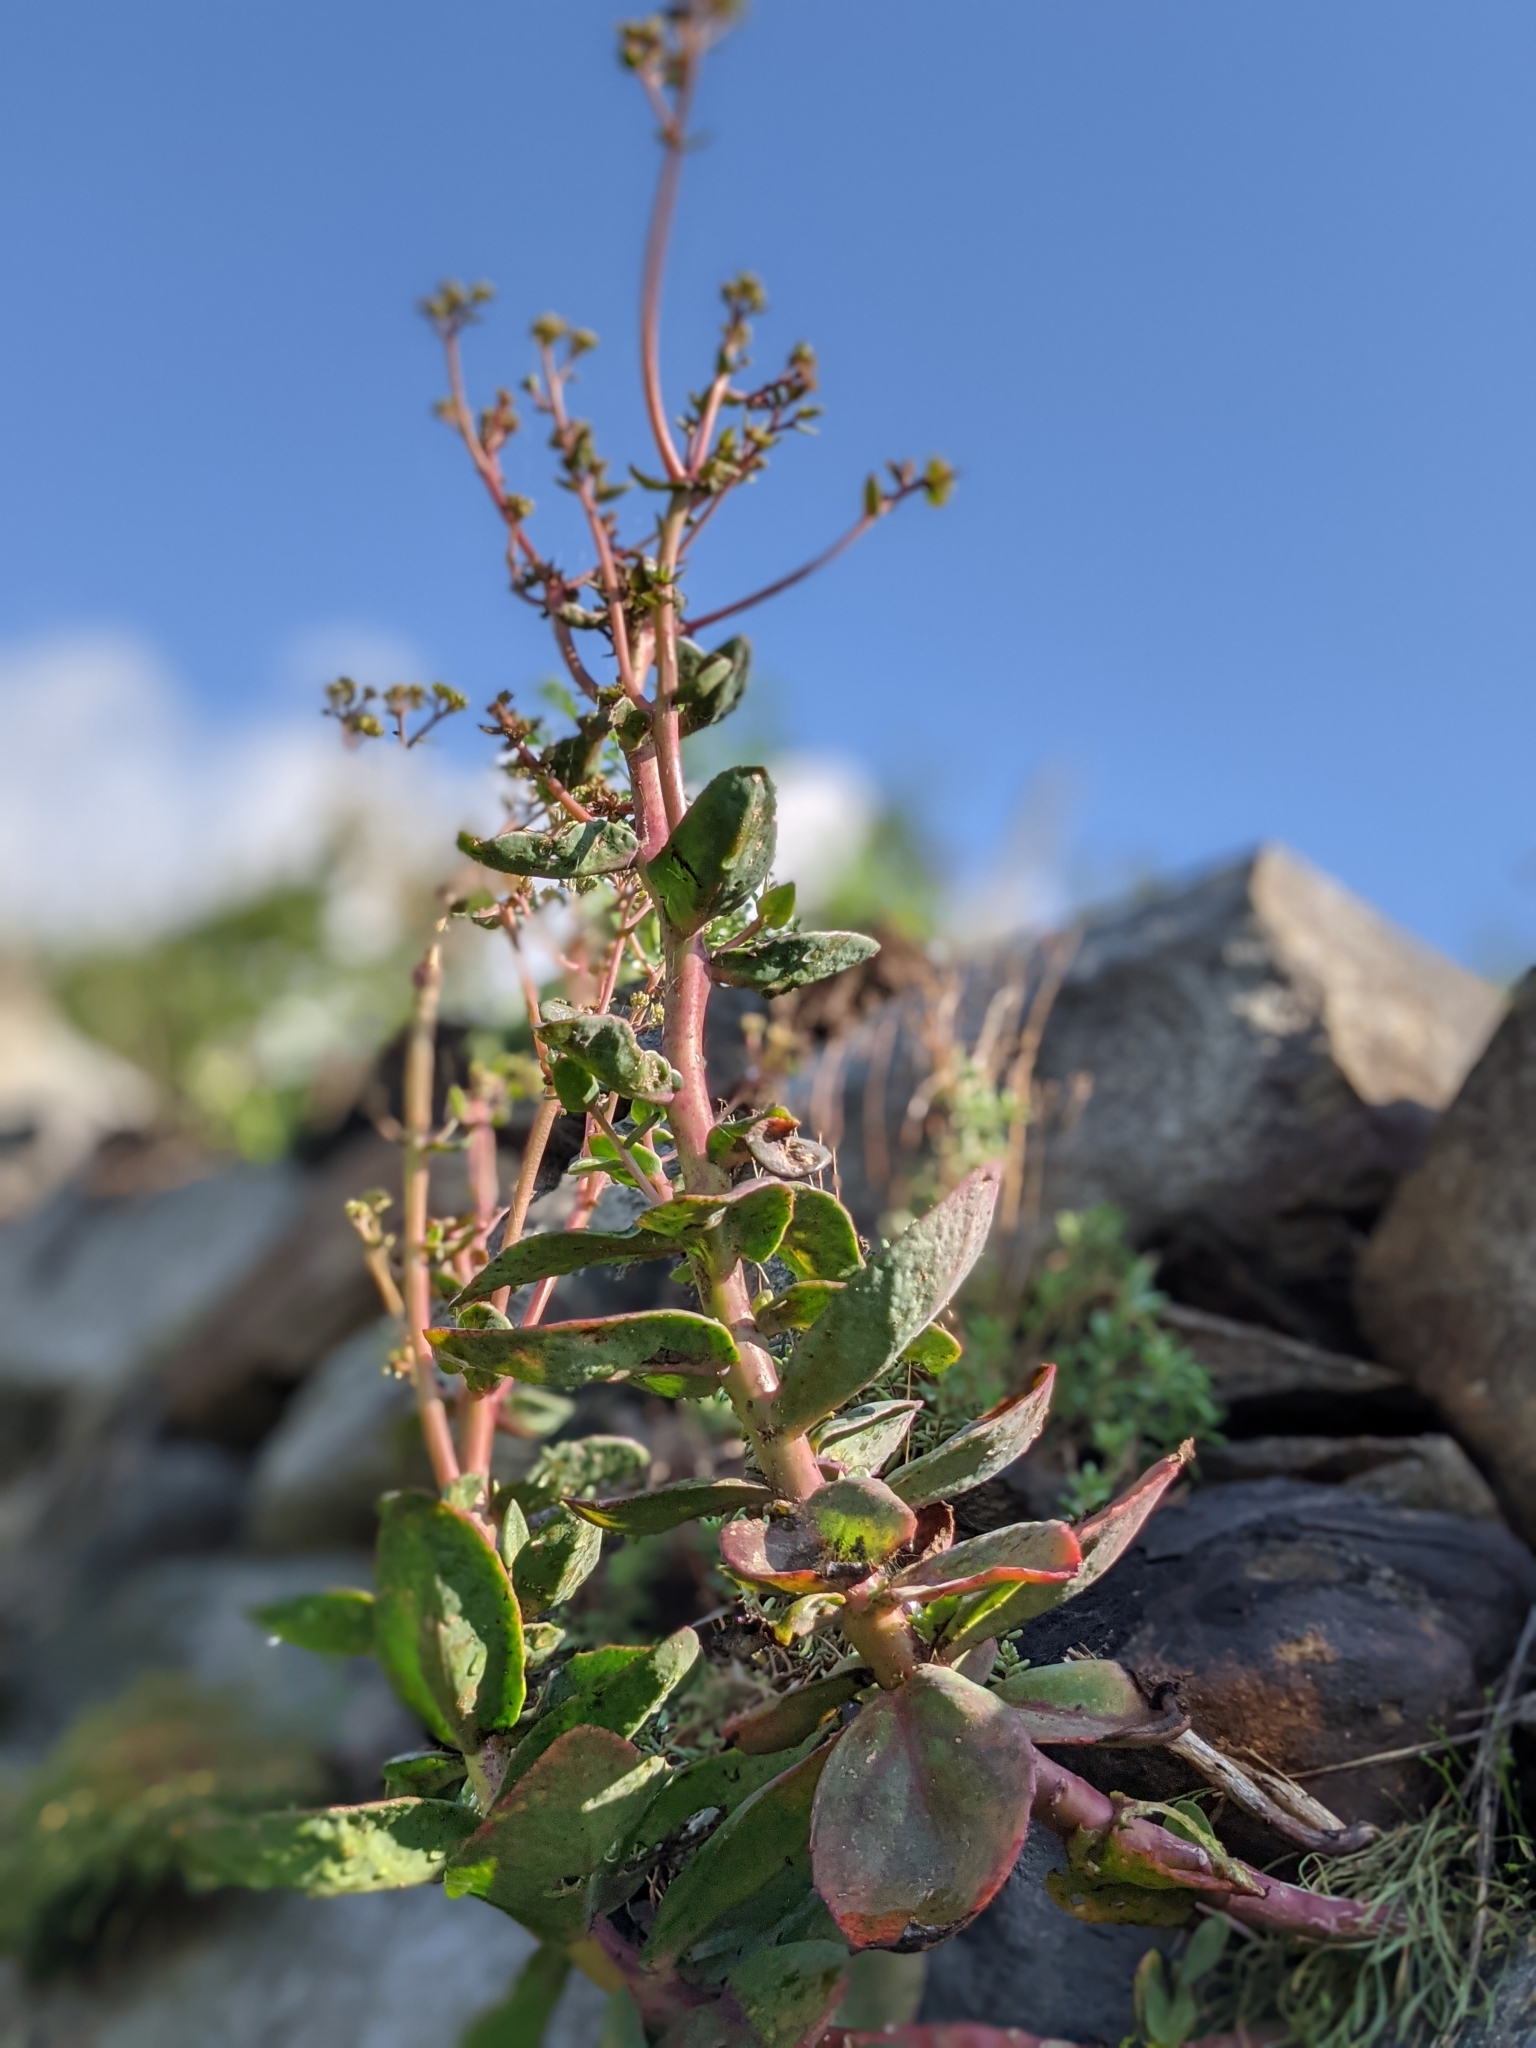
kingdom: Plantae
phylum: Tracheophyta
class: Magnoliopsida
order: Saxifragales
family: Crassulaceae
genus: Hylotelephium
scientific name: Hylotelephium maximum
